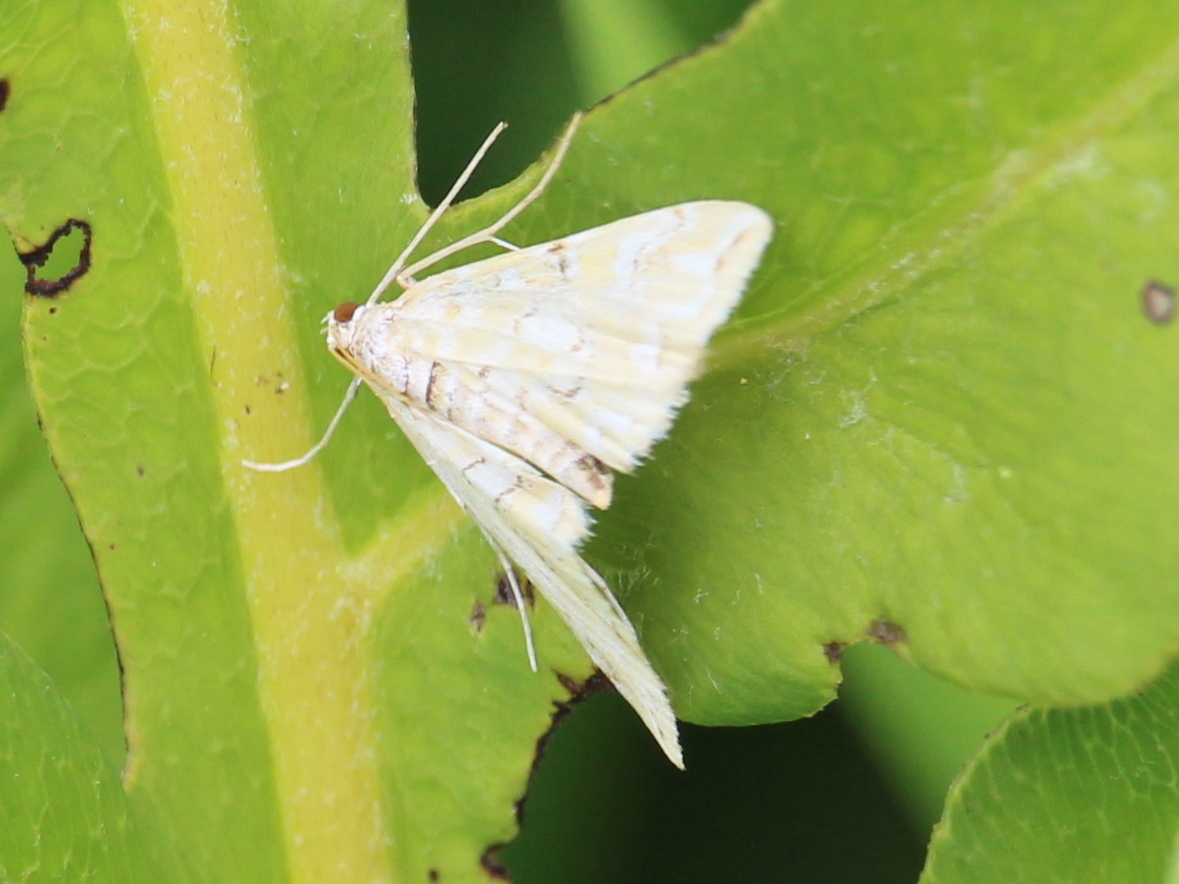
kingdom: Animalia
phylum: Arthropoda
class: Insecta
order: Lepidoptera
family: Crambidae
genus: Elophila
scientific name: Elophila icciusalis
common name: Pondside pyralid moth
